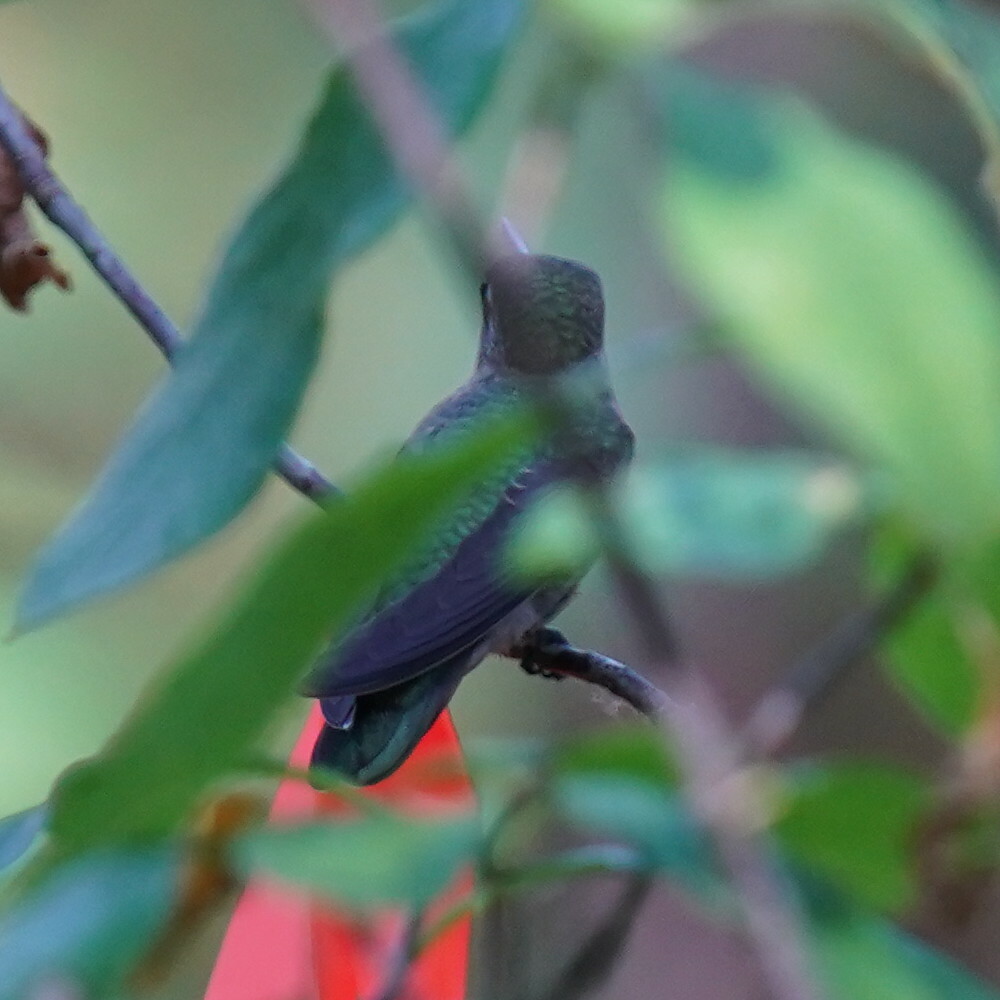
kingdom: Animalia
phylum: Chordata
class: Aves
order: Apodiformes
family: Trochilidae
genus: Calypte
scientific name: Calypte anna
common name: Anna's hummingbird
